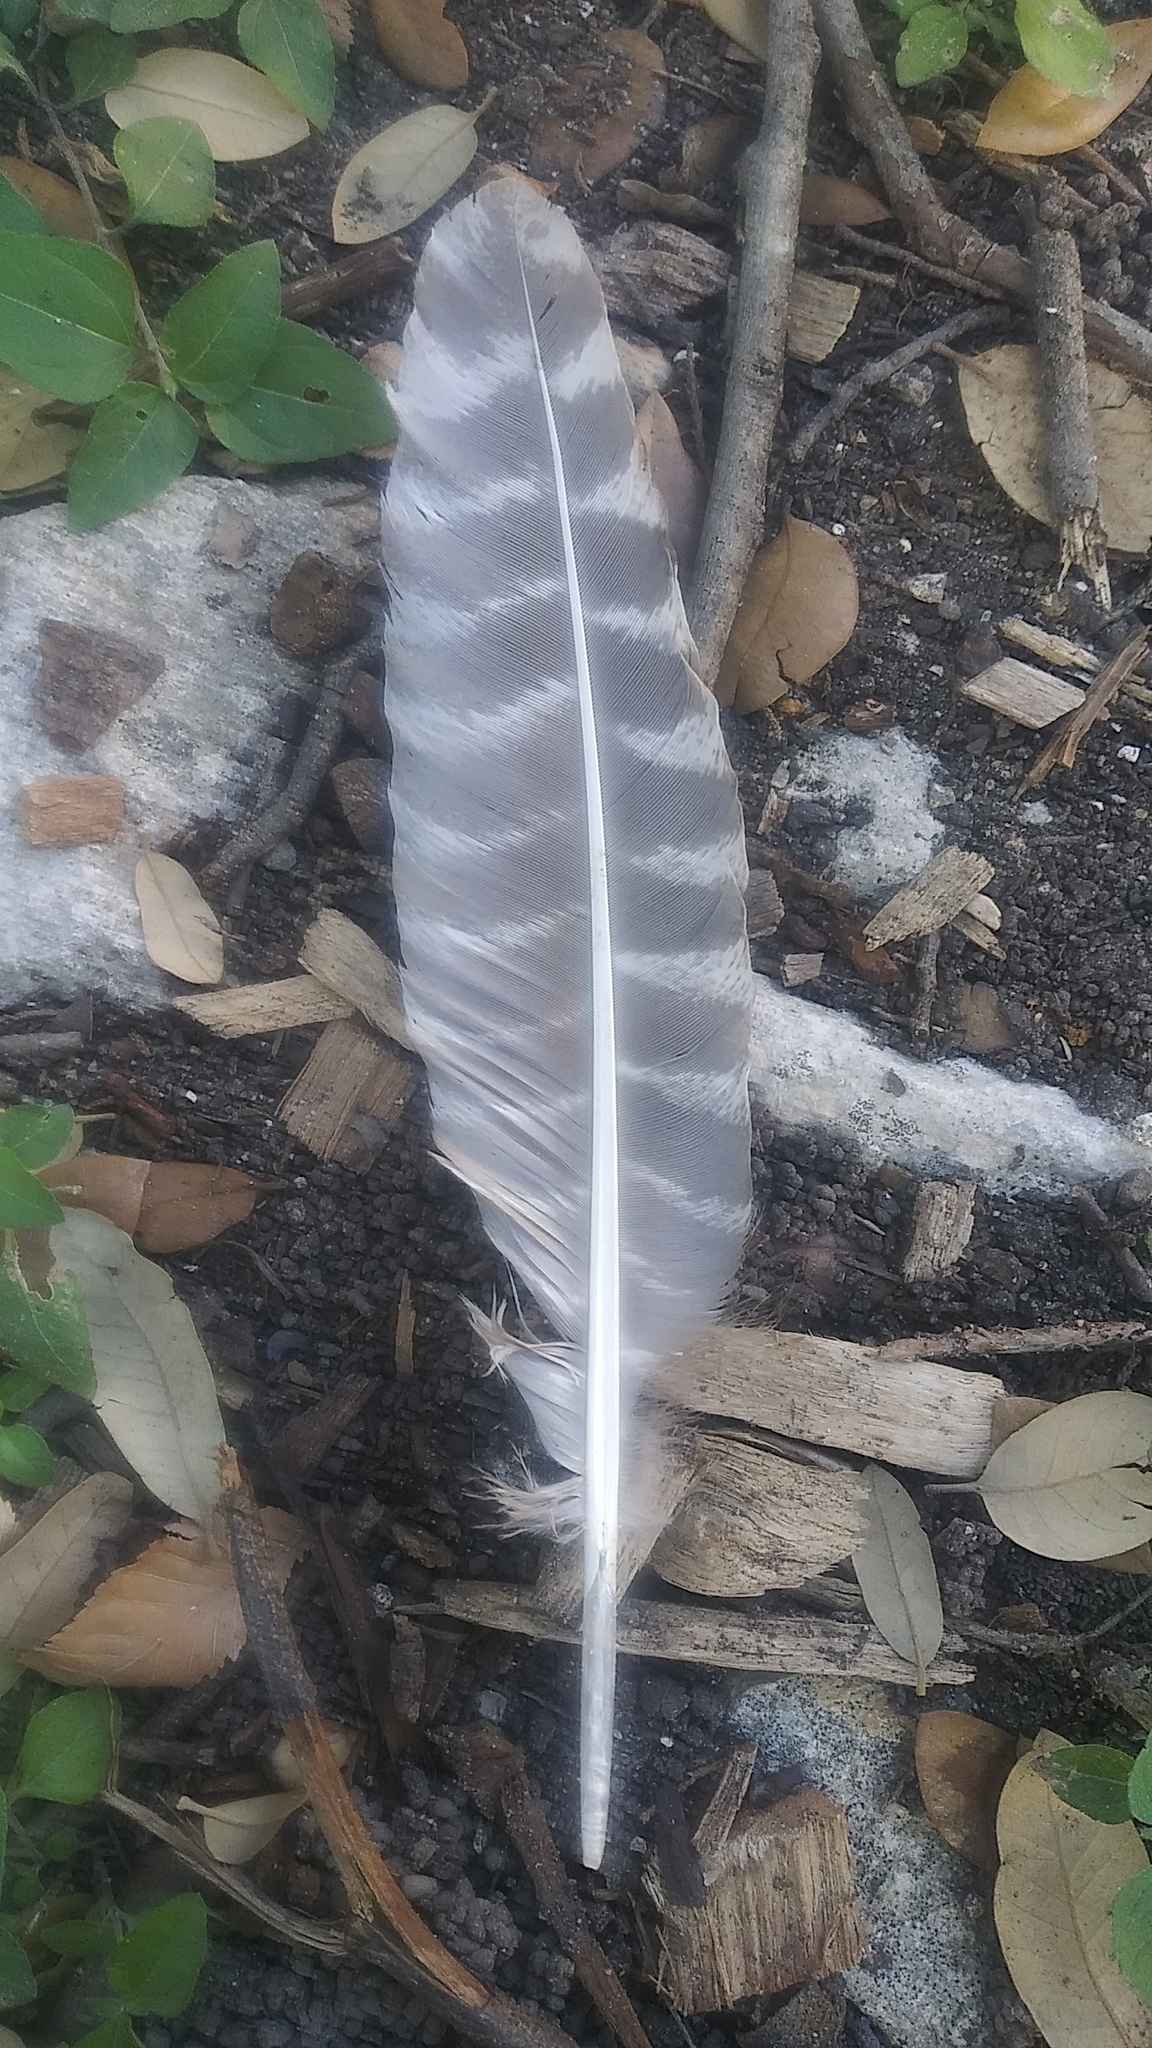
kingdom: Animalia
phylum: Chordata
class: Aves
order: Galliformes
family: Phasianidae
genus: Meleagris
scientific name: Meleagris gallopavo
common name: Wild turkey
